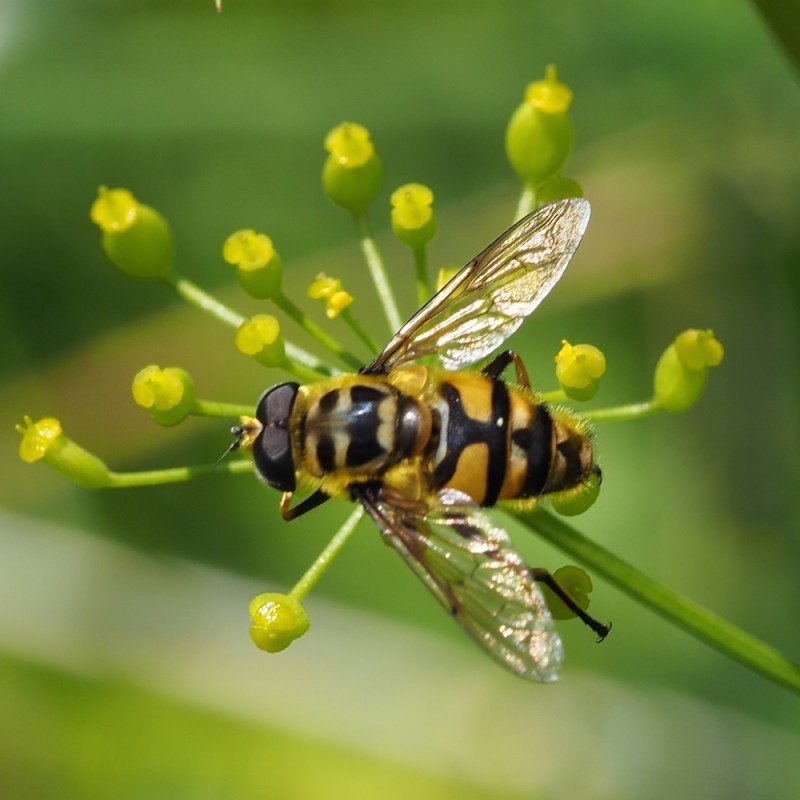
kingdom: Animalia
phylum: Arthropoda
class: Insecta
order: Diptera
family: Syrphidae
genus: Myathropa
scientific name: Myathropa florea
